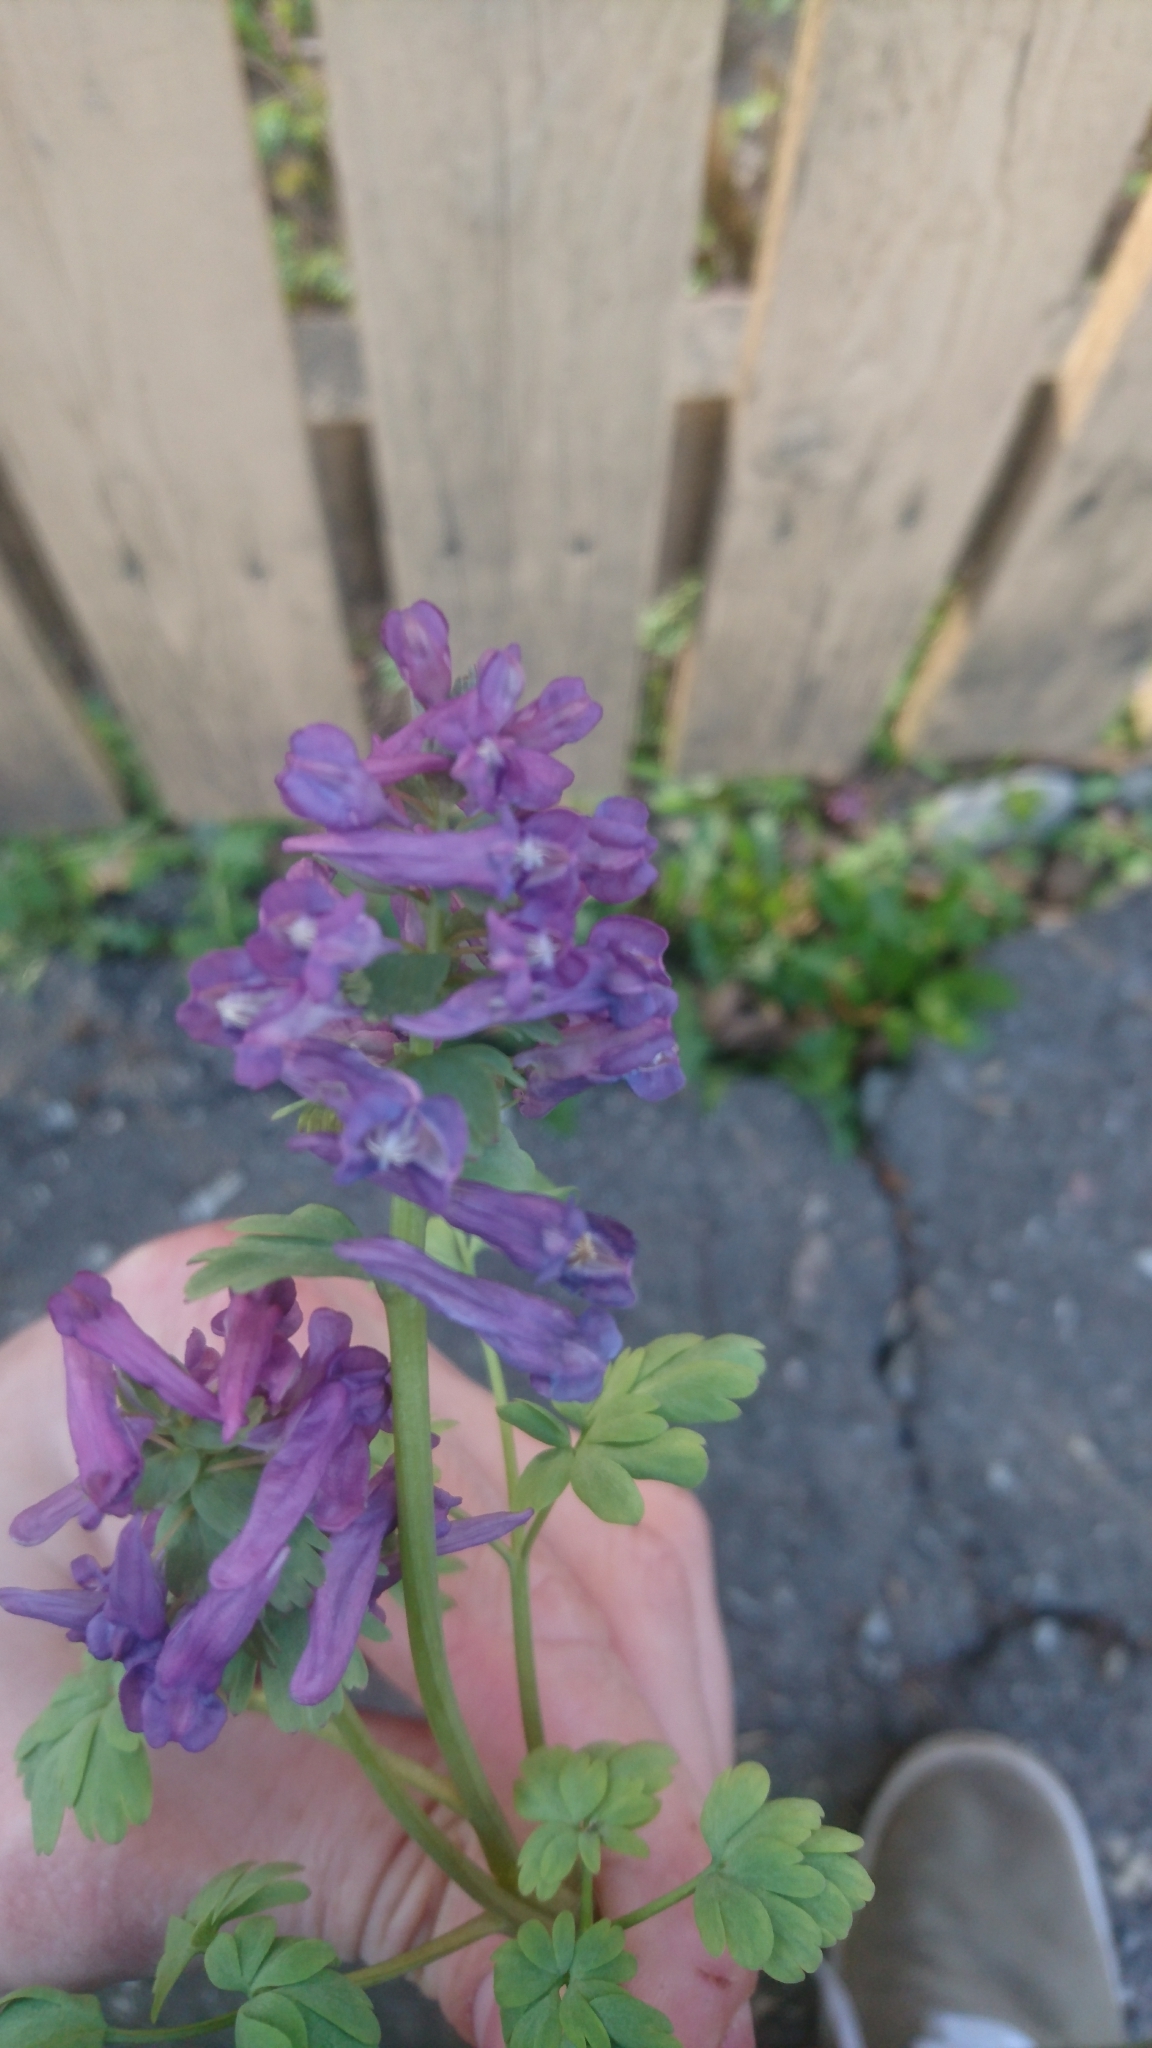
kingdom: Plantae
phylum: Tracheophyta
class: Magnoliopsida
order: Ranunculales
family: Papaveraceae
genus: Corydalis
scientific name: Corydalis solida
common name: Bird-in-a-bush
